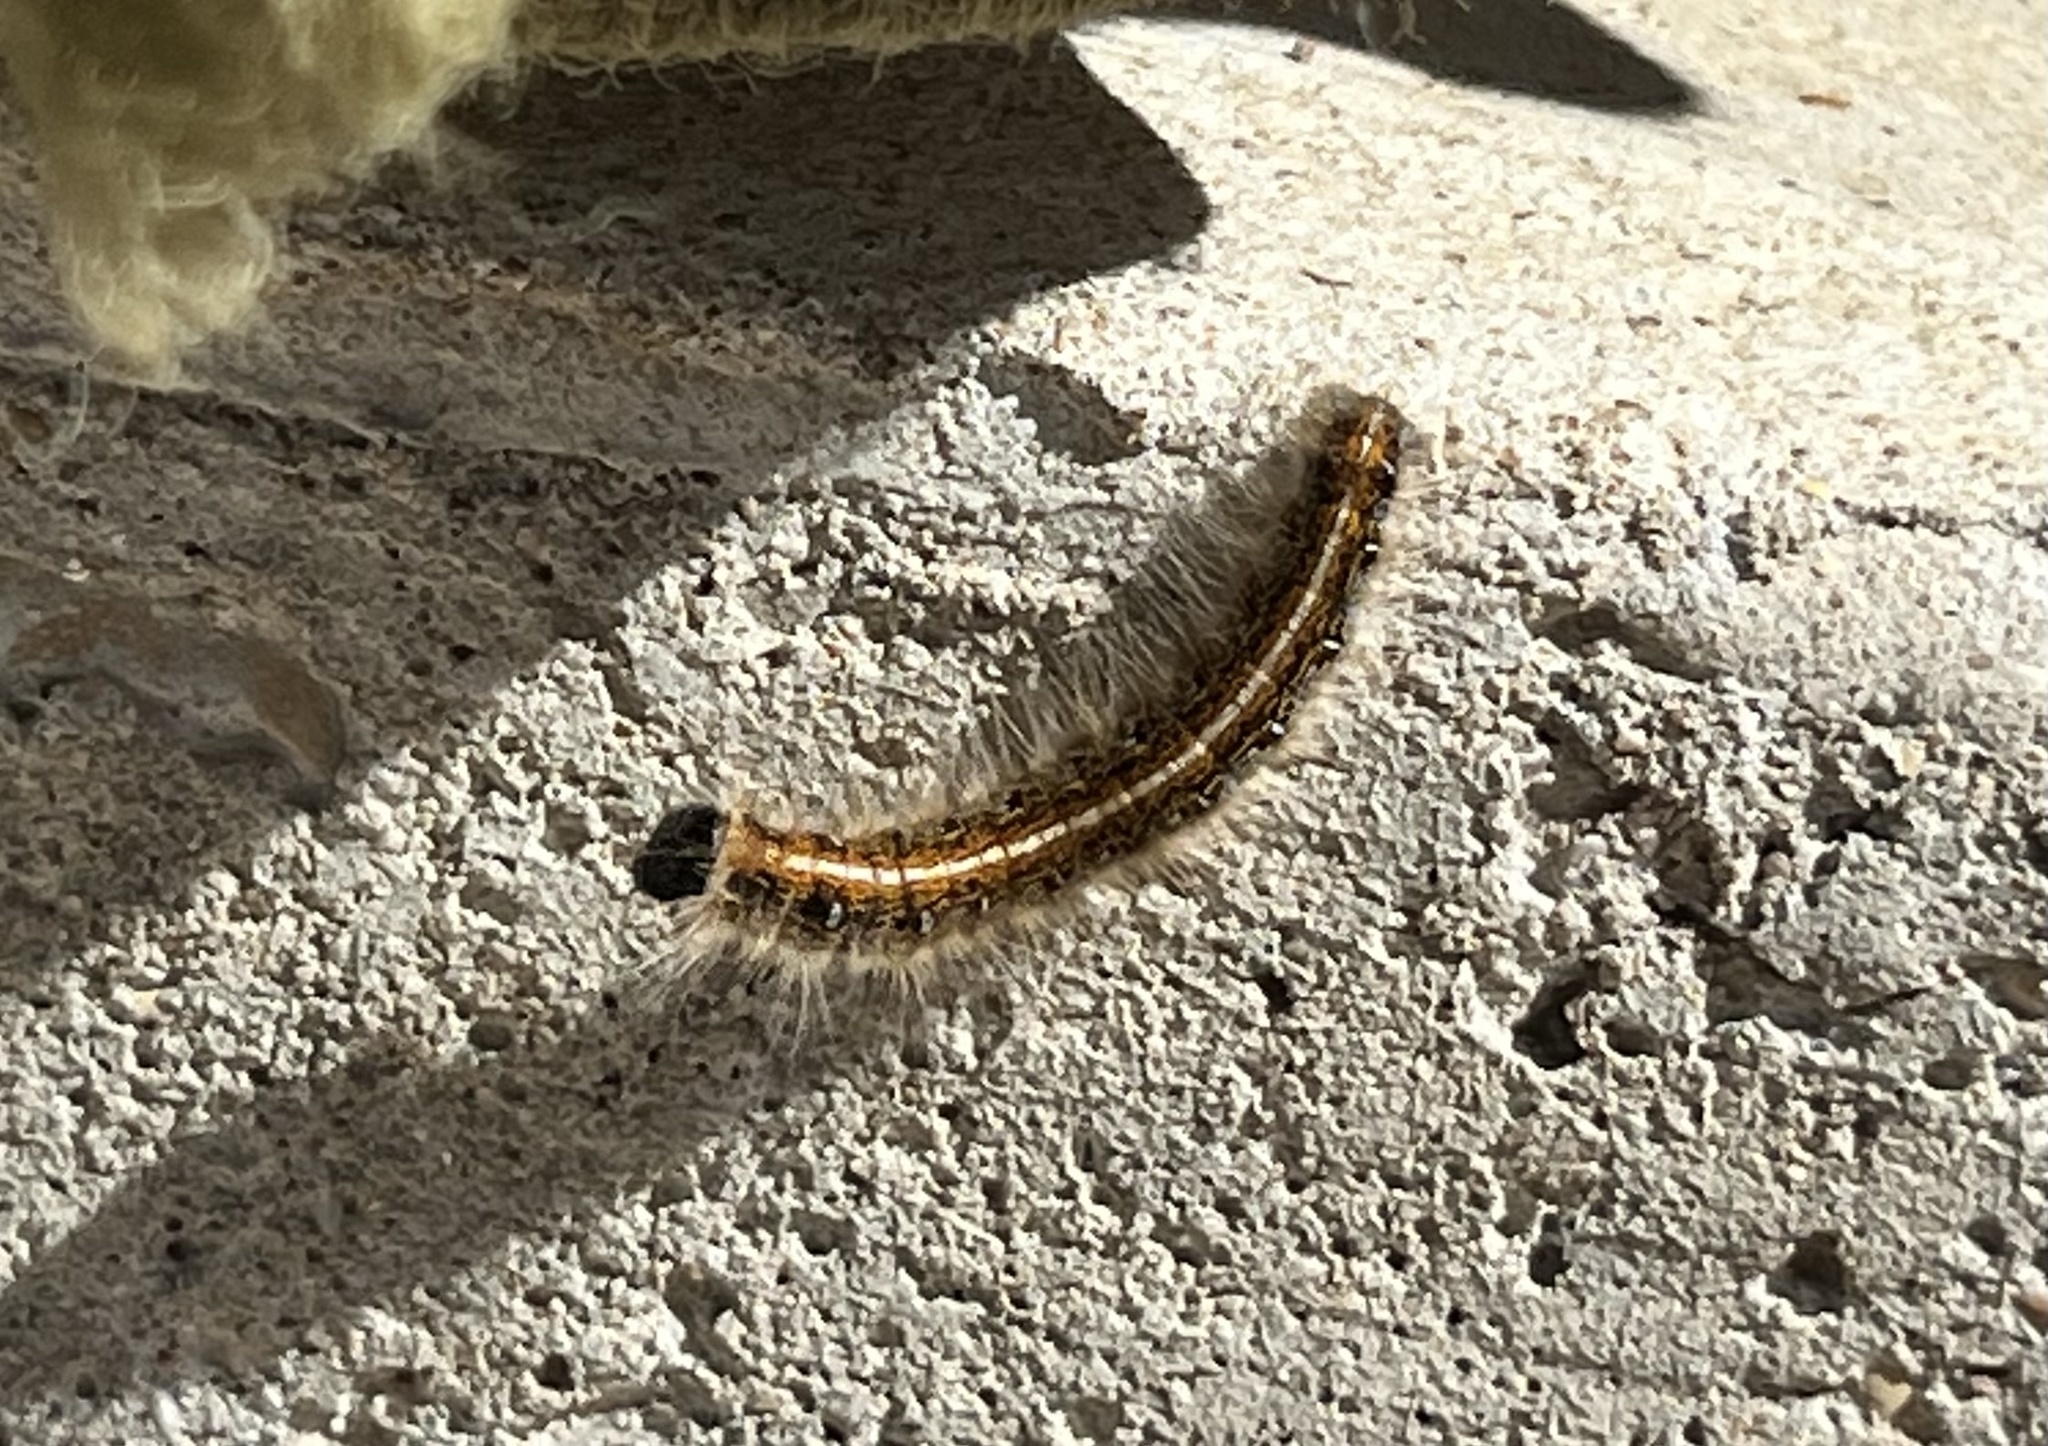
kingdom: Animalia
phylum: Arthropoda
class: Insecta
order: Lepidoptera
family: Lasiocampidae
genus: Malacosoma
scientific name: Malacosoma americana
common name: Eastern tent caterpillar moth
